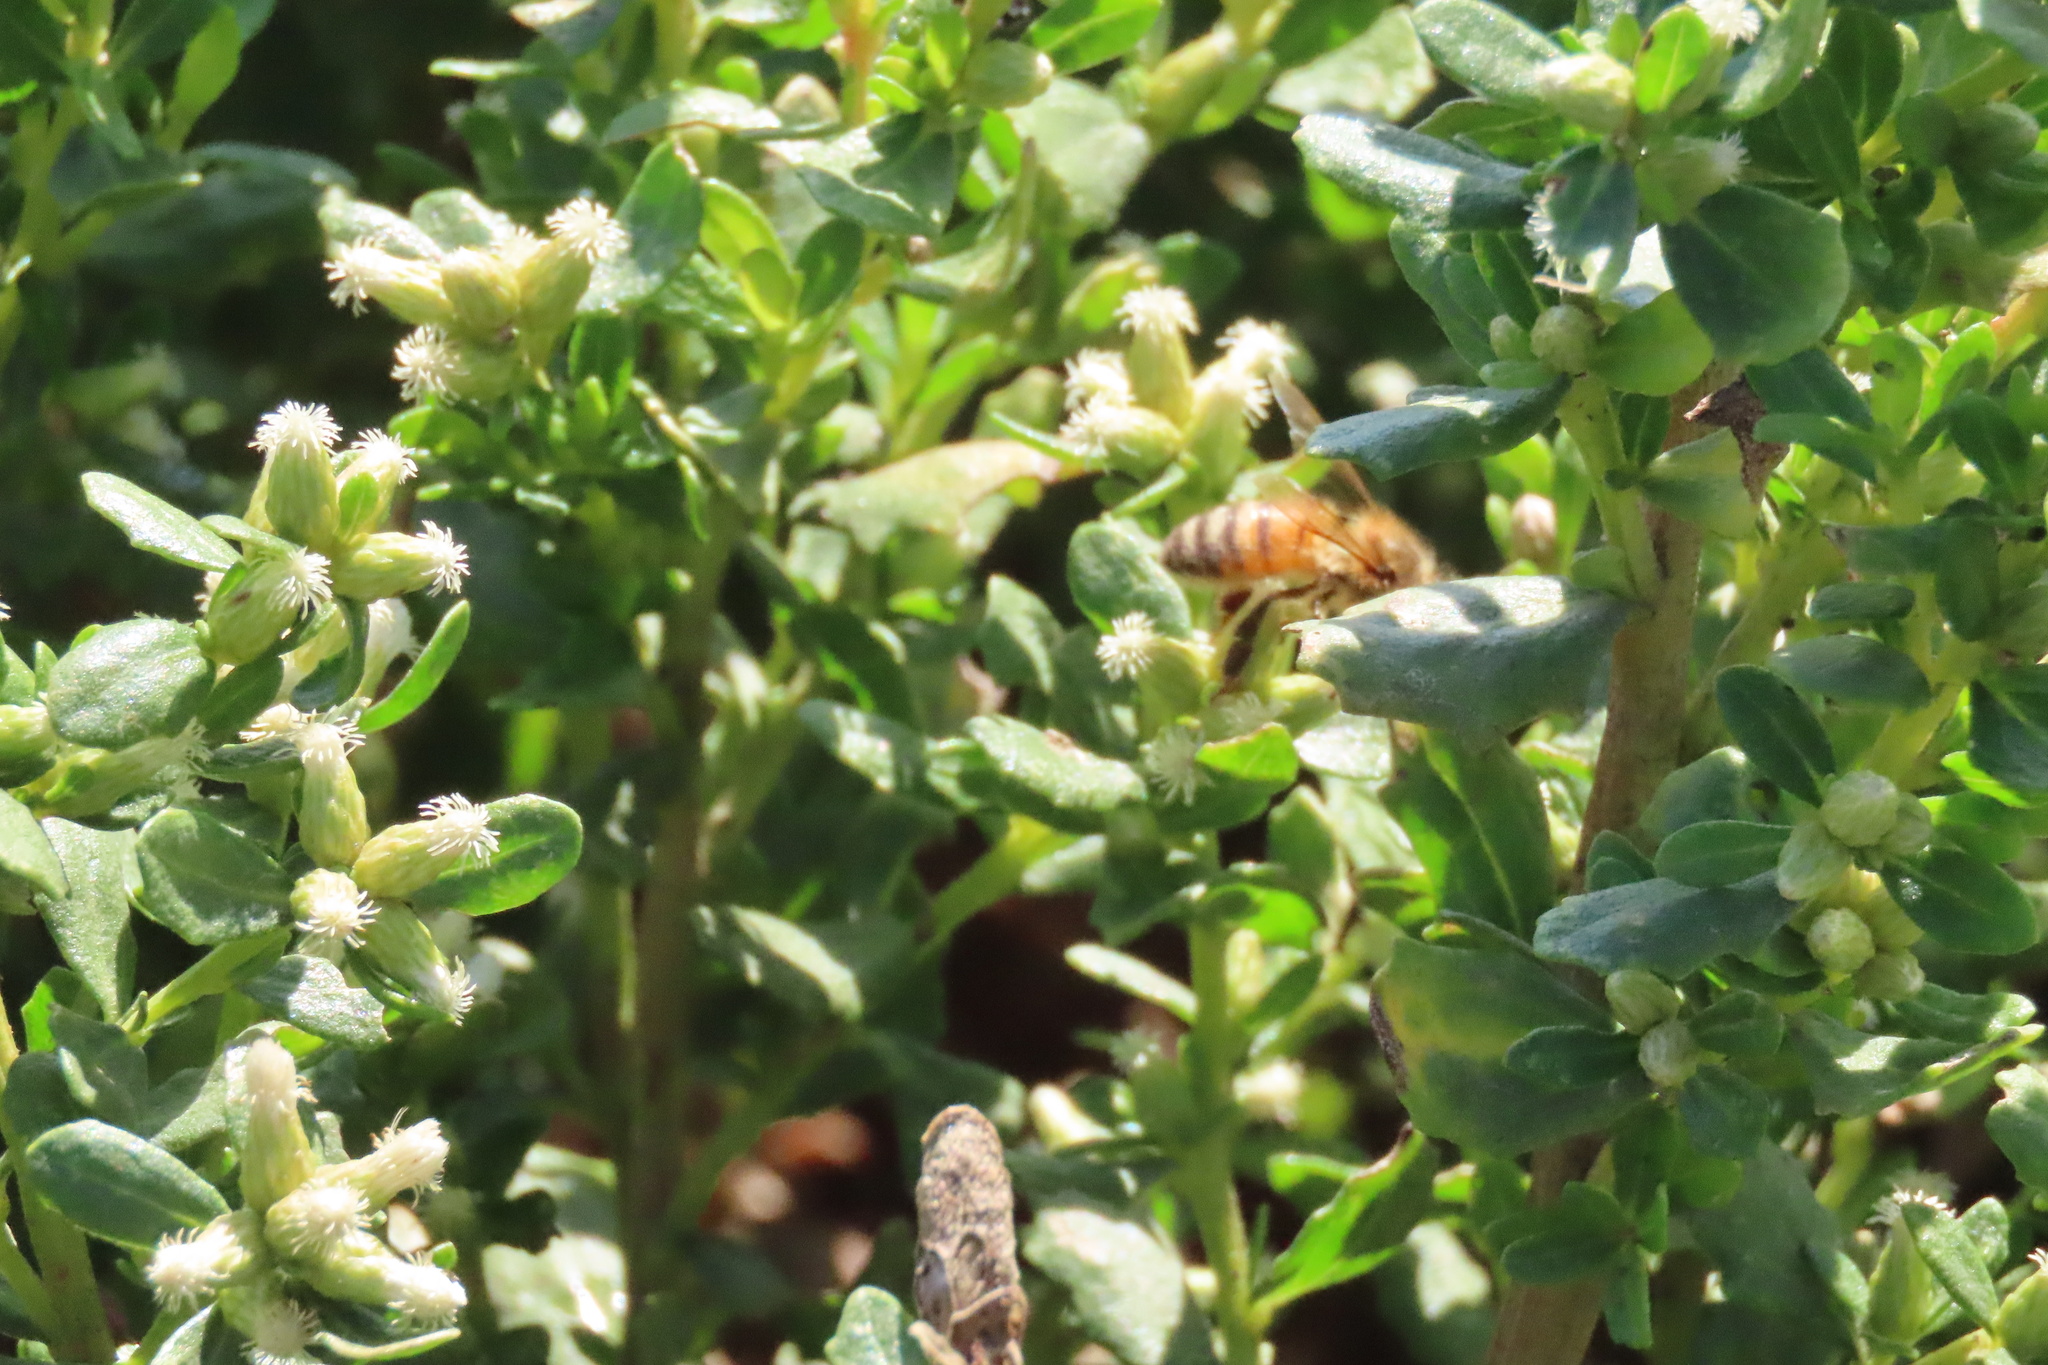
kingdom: Animalia
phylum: Arthropoda
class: Insecta
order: Hymenoptera
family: Apidae
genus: Apis
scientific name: Apis mellifera
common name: Honey bee
